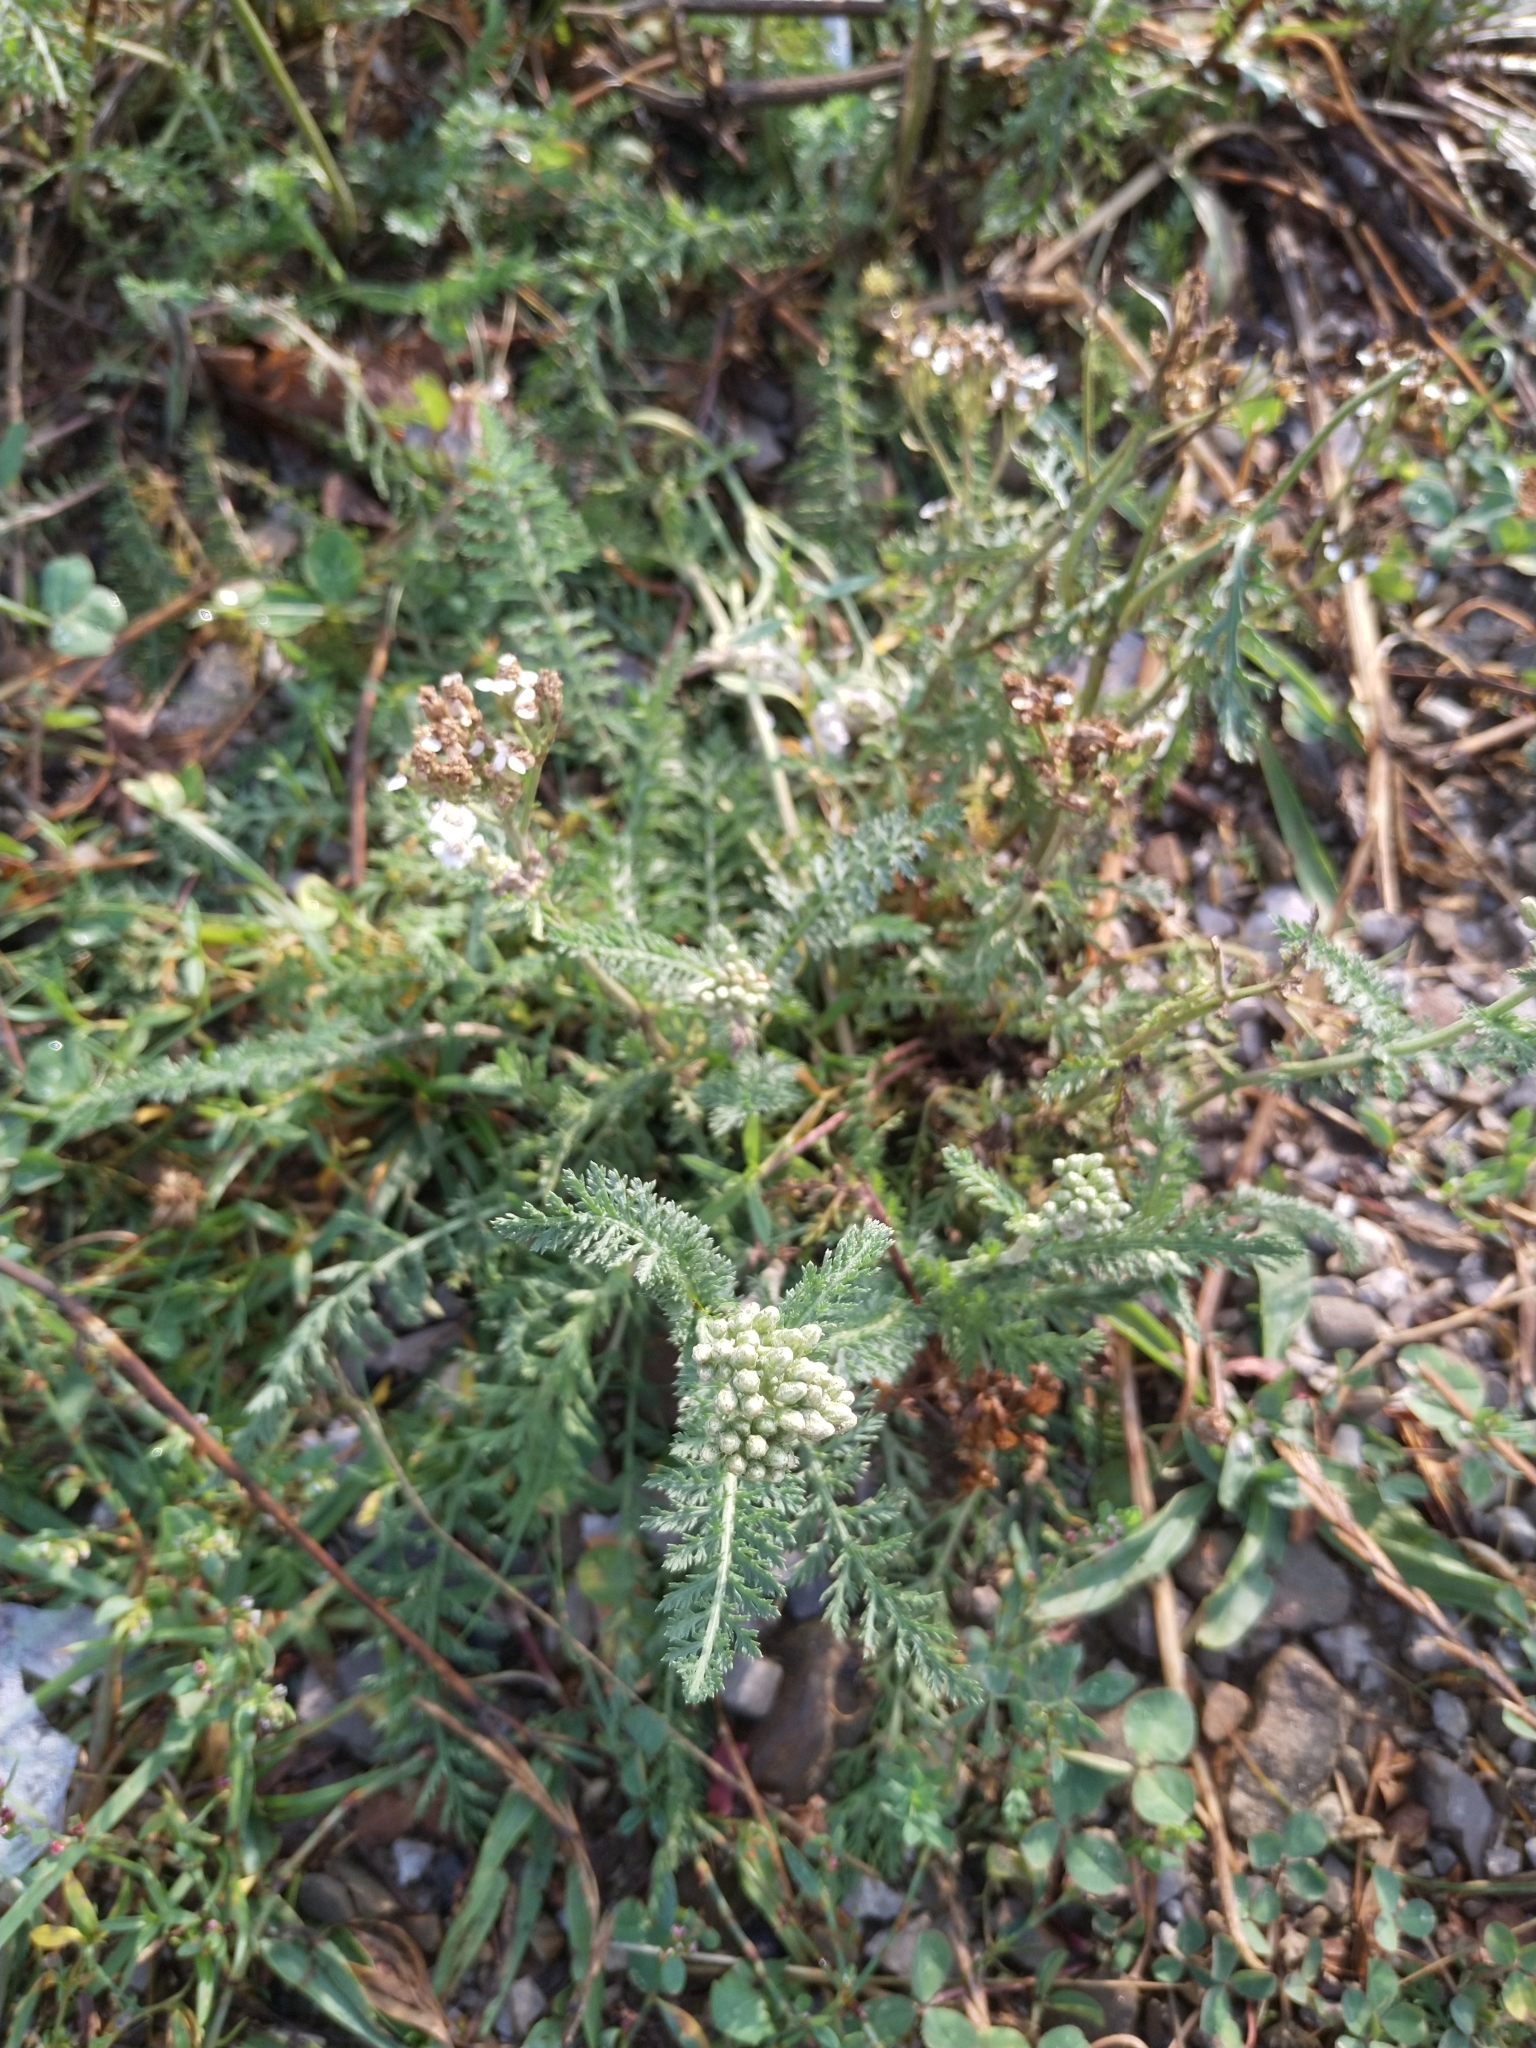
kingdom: Plantae
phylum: Tracheophyta
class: Magnoliopsida
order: Asterales
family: Asteraceae
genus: Achillea
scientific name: Achillea millefolium
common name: Yarrow
